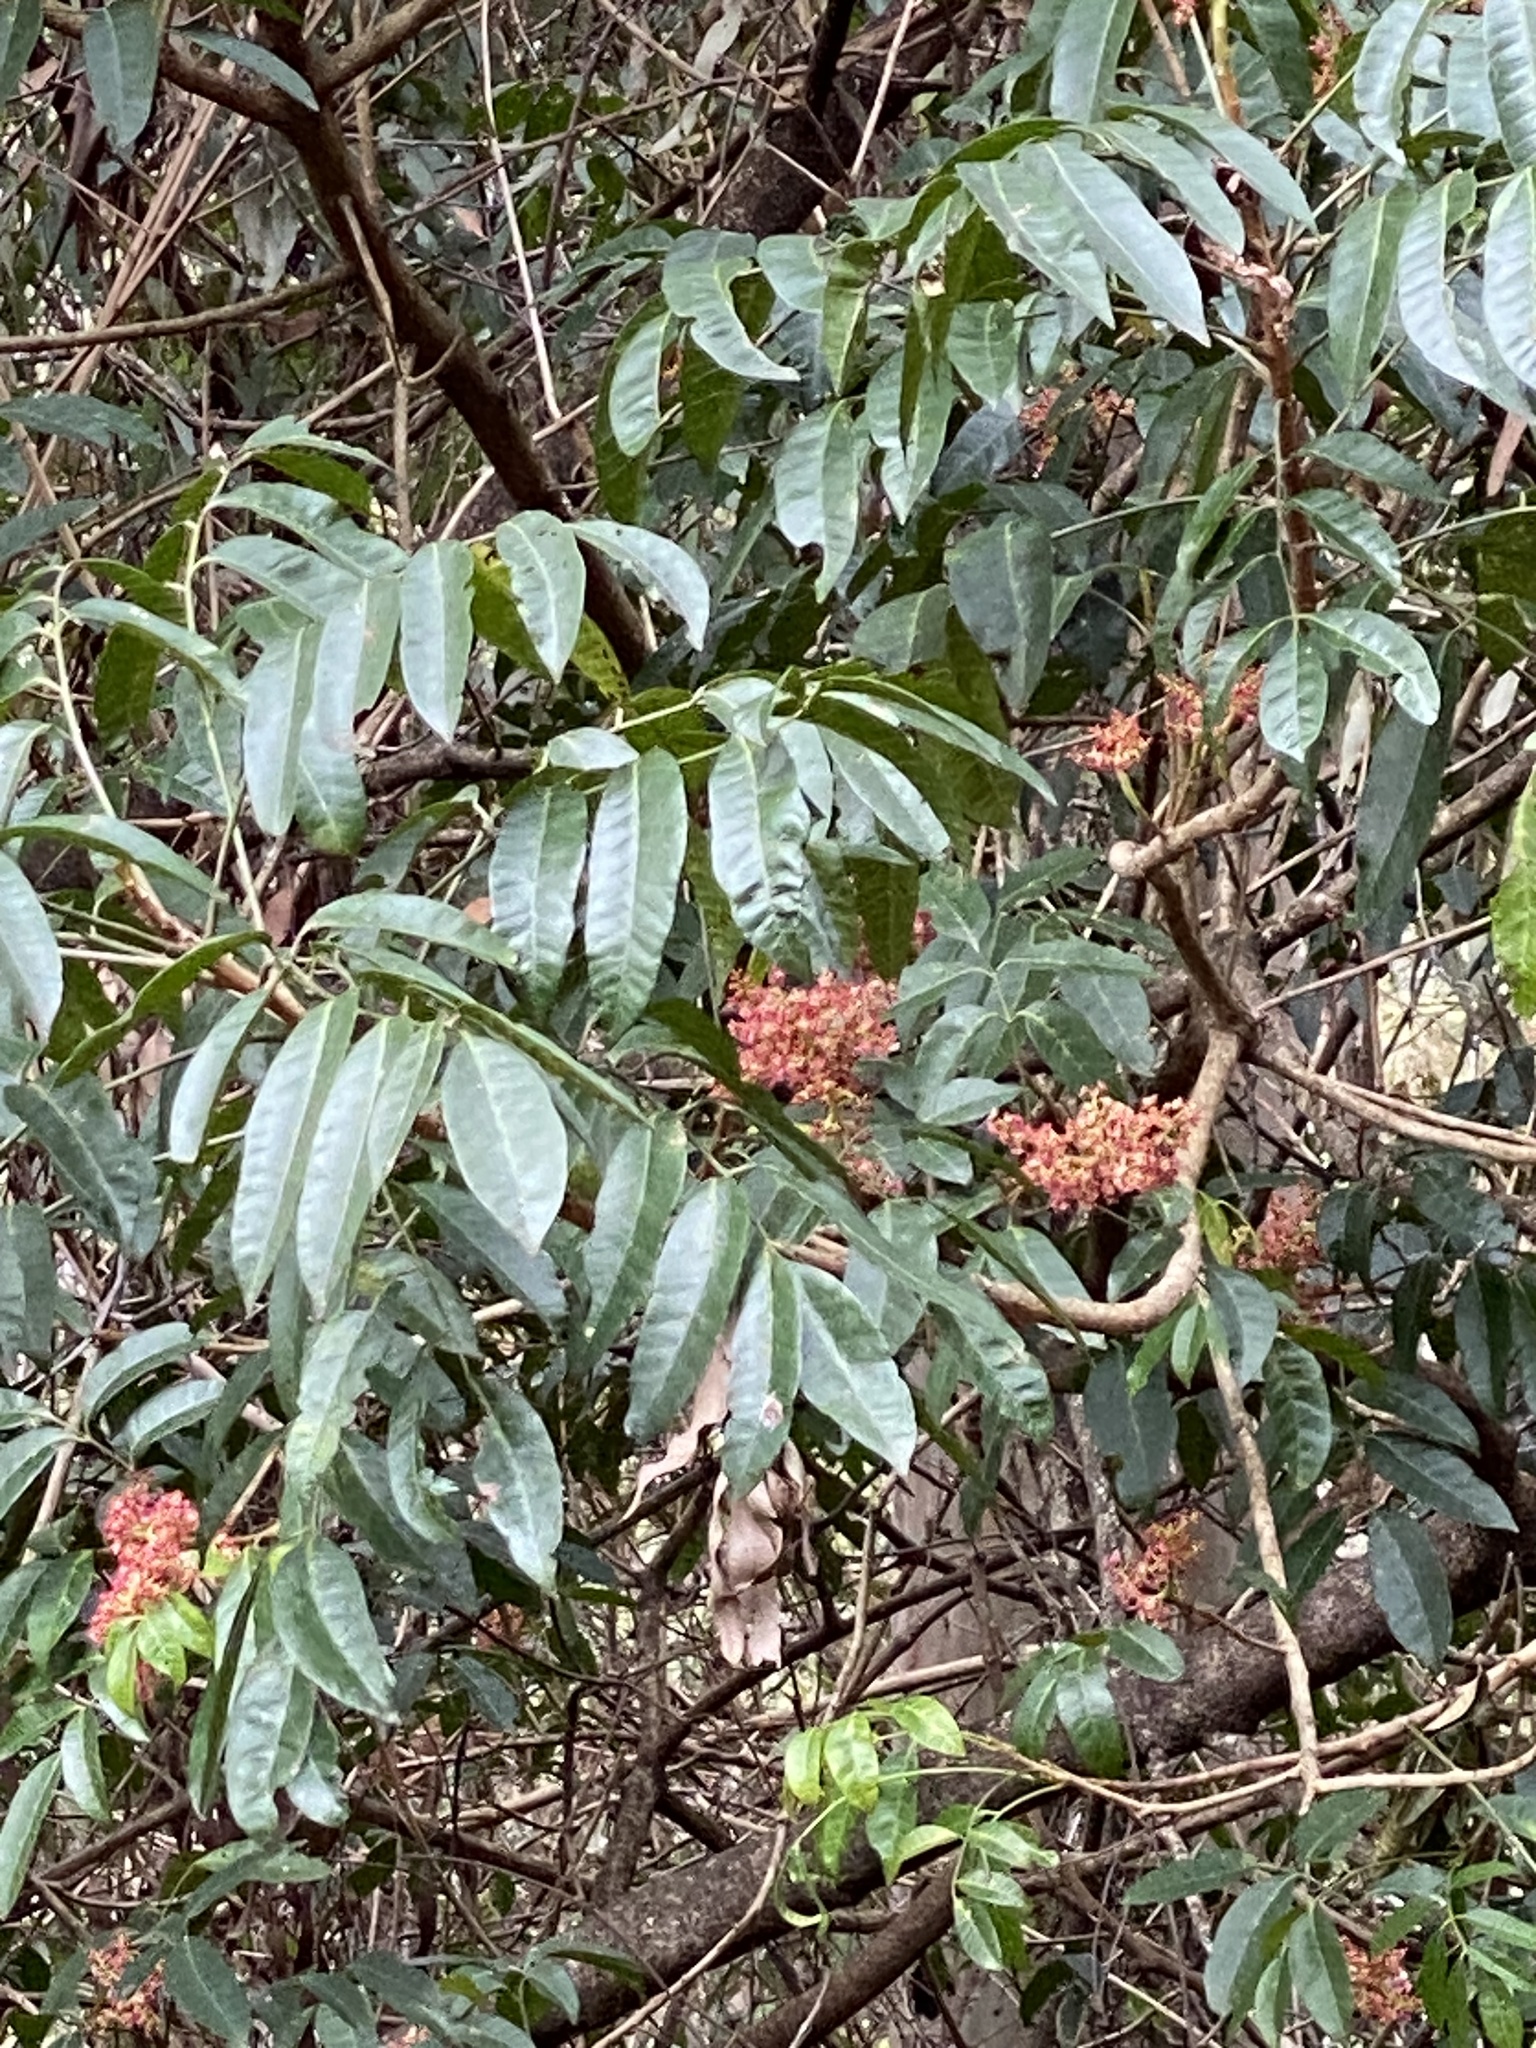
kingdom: Plantae
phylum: Tracheophyta
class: Magnoliopsida
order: Sapindales
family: Anacardiaceae
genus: Rhodosphaera
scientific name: Rhodosphaera rhodanthema
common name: Tulip satinwood
